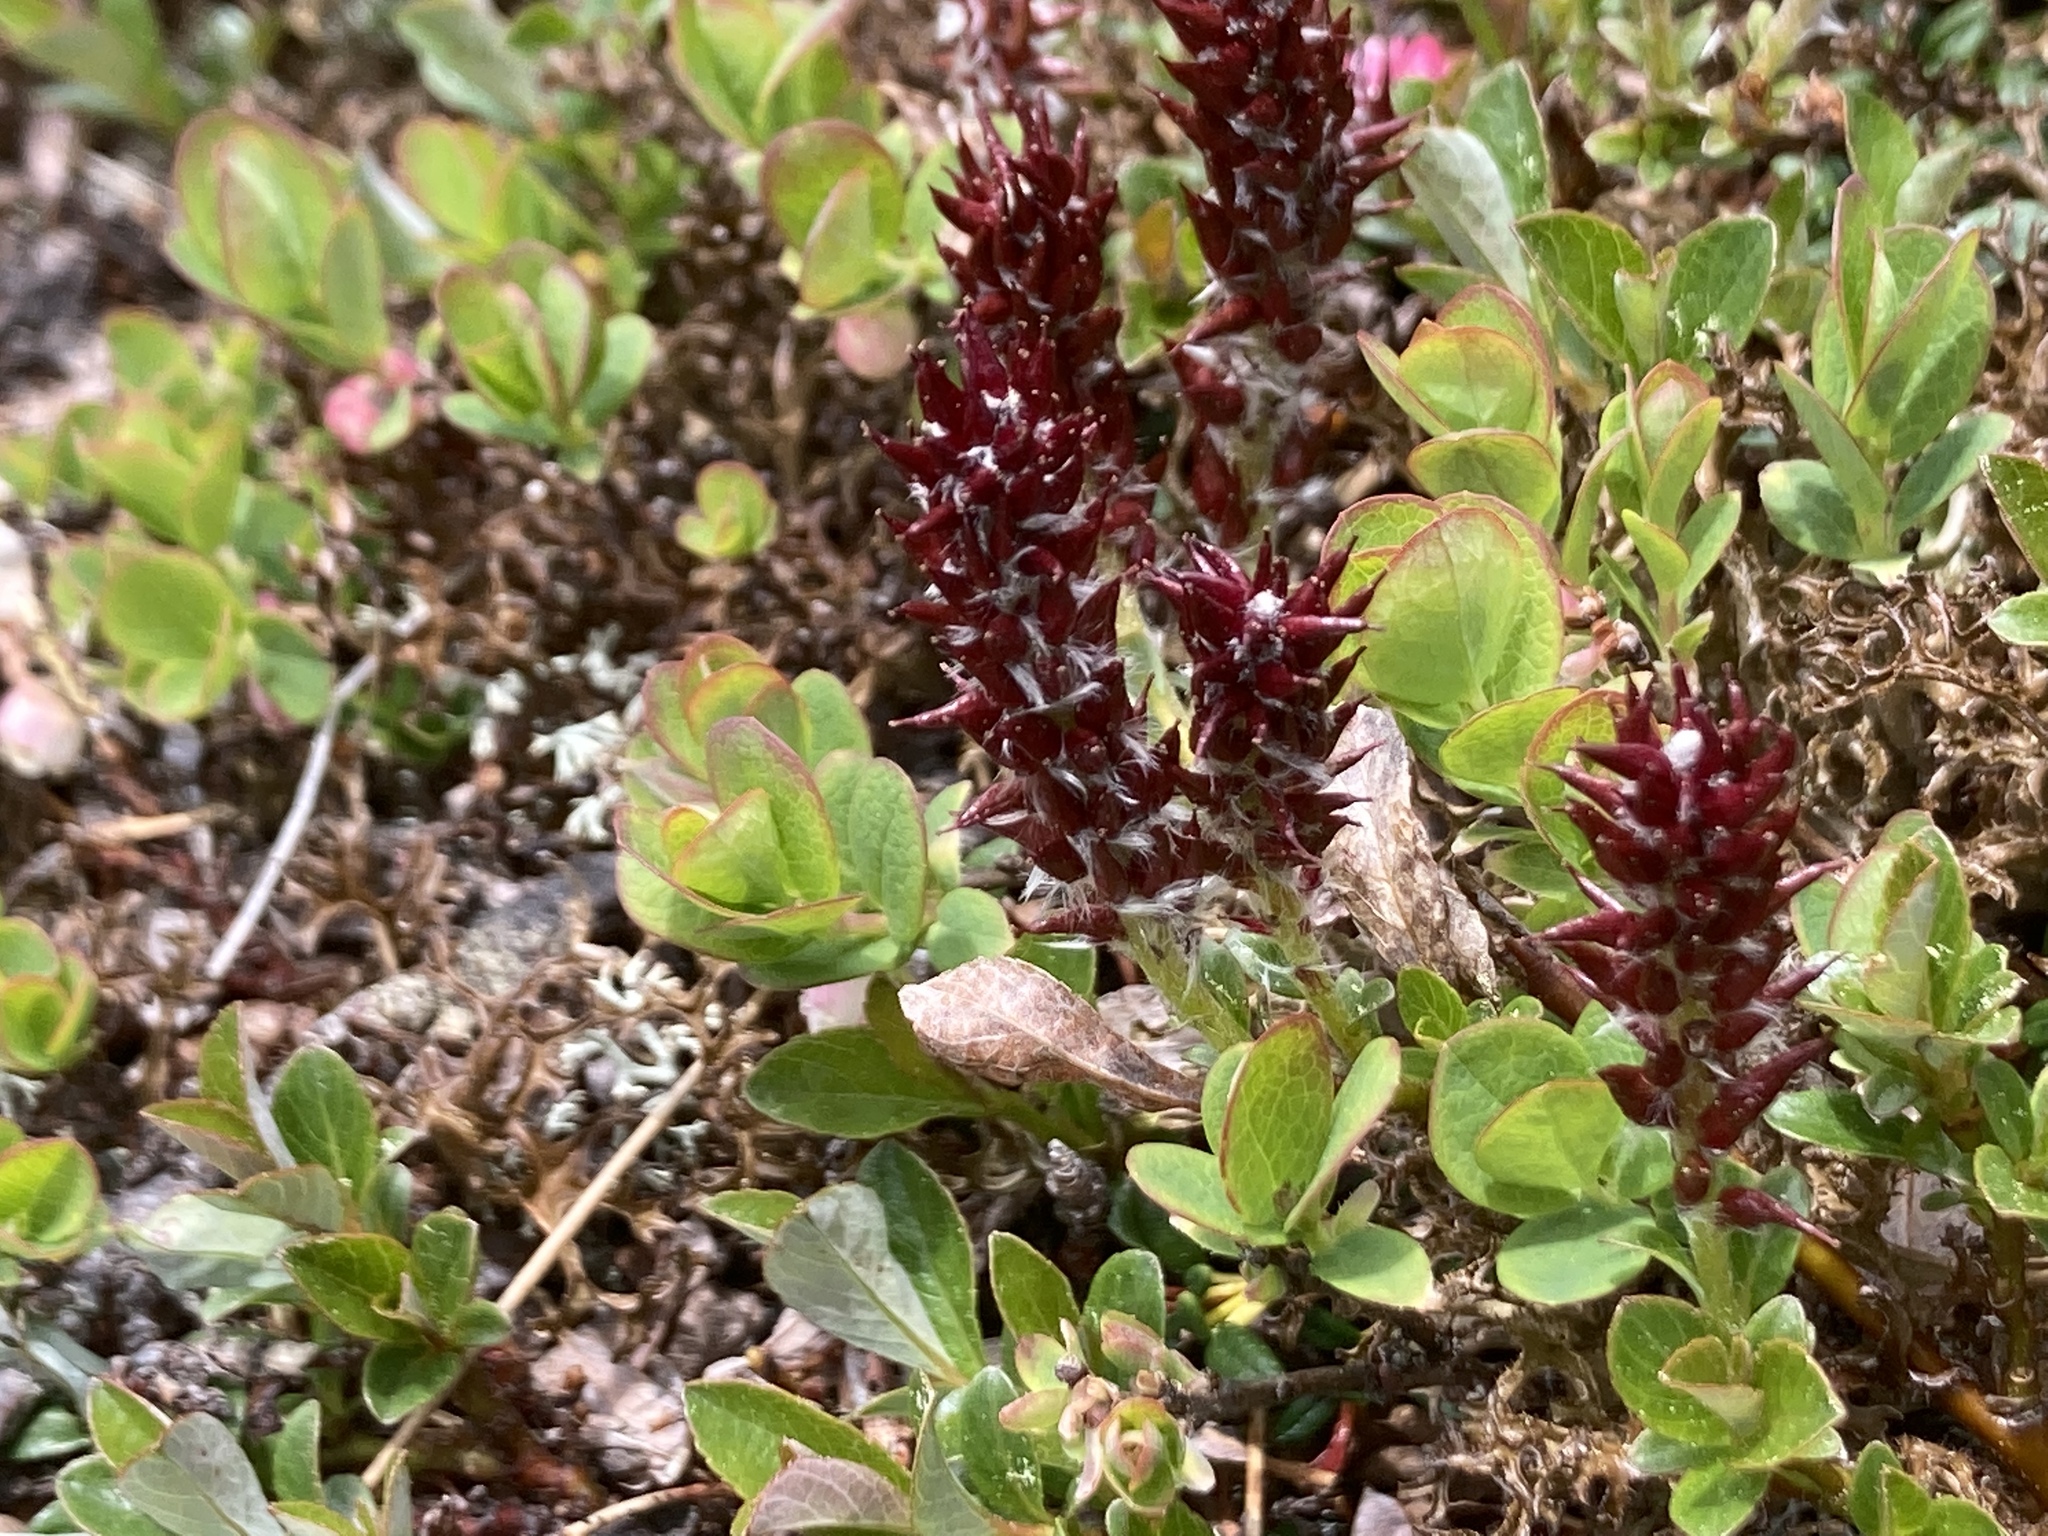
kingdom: Plantae
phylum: Tracheophyta
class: Magnoliopsida
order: Malpighiales
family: Salicaceae
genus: Salix
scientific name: Salix uva-ursi
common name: Bearberry willow
